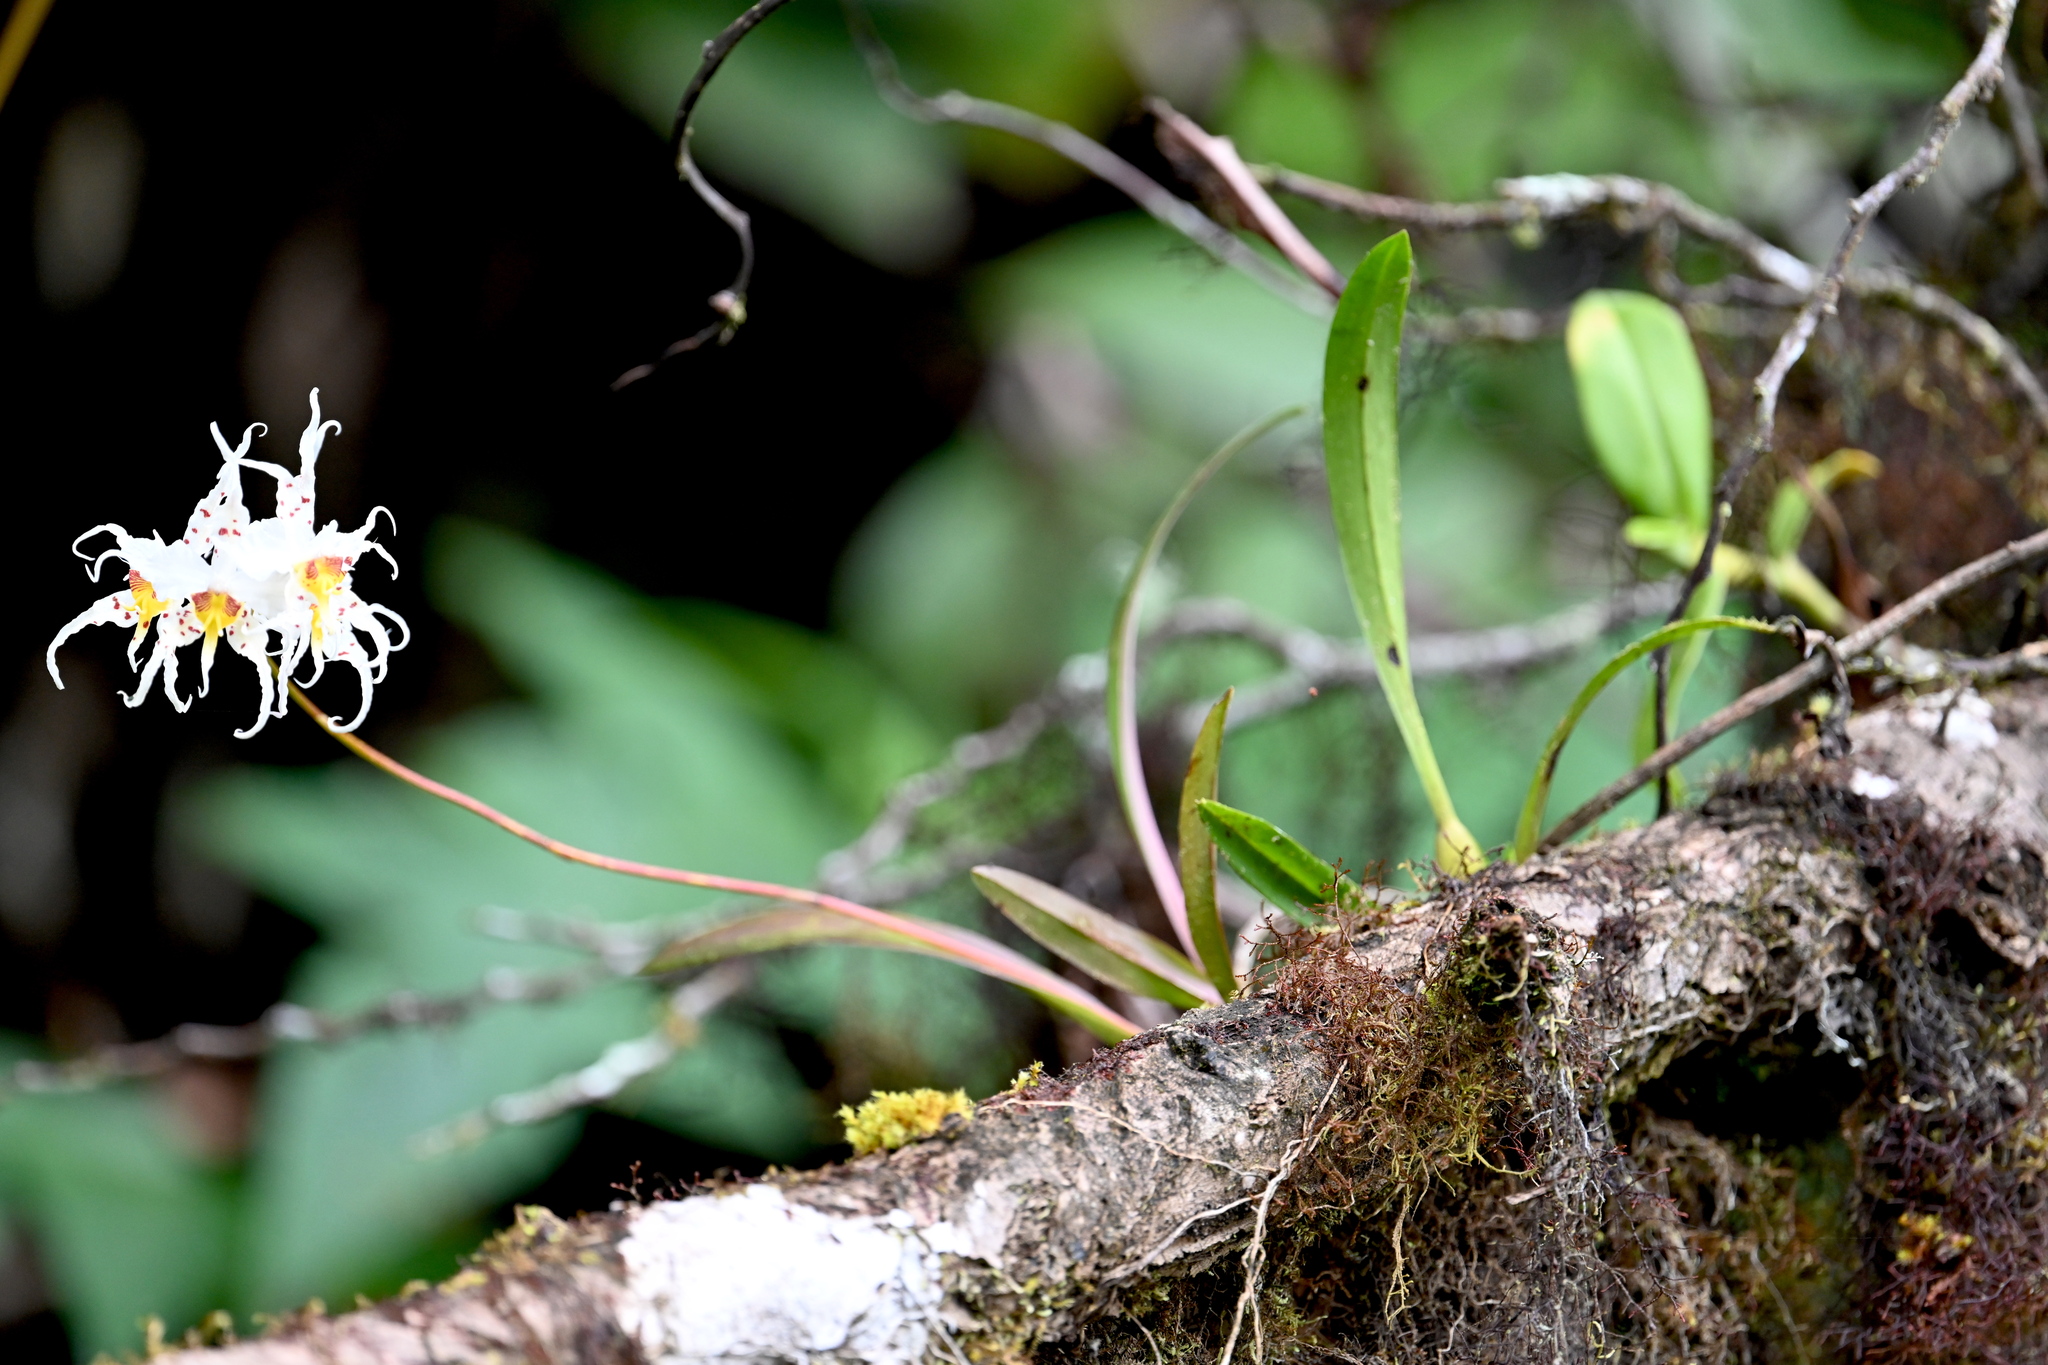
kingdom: Plantae
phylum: Tracheophyta
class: Liliopsida
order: Asparagales
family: Orchidaceae
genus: Oncidium
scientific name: Oncidium cirrhosum
